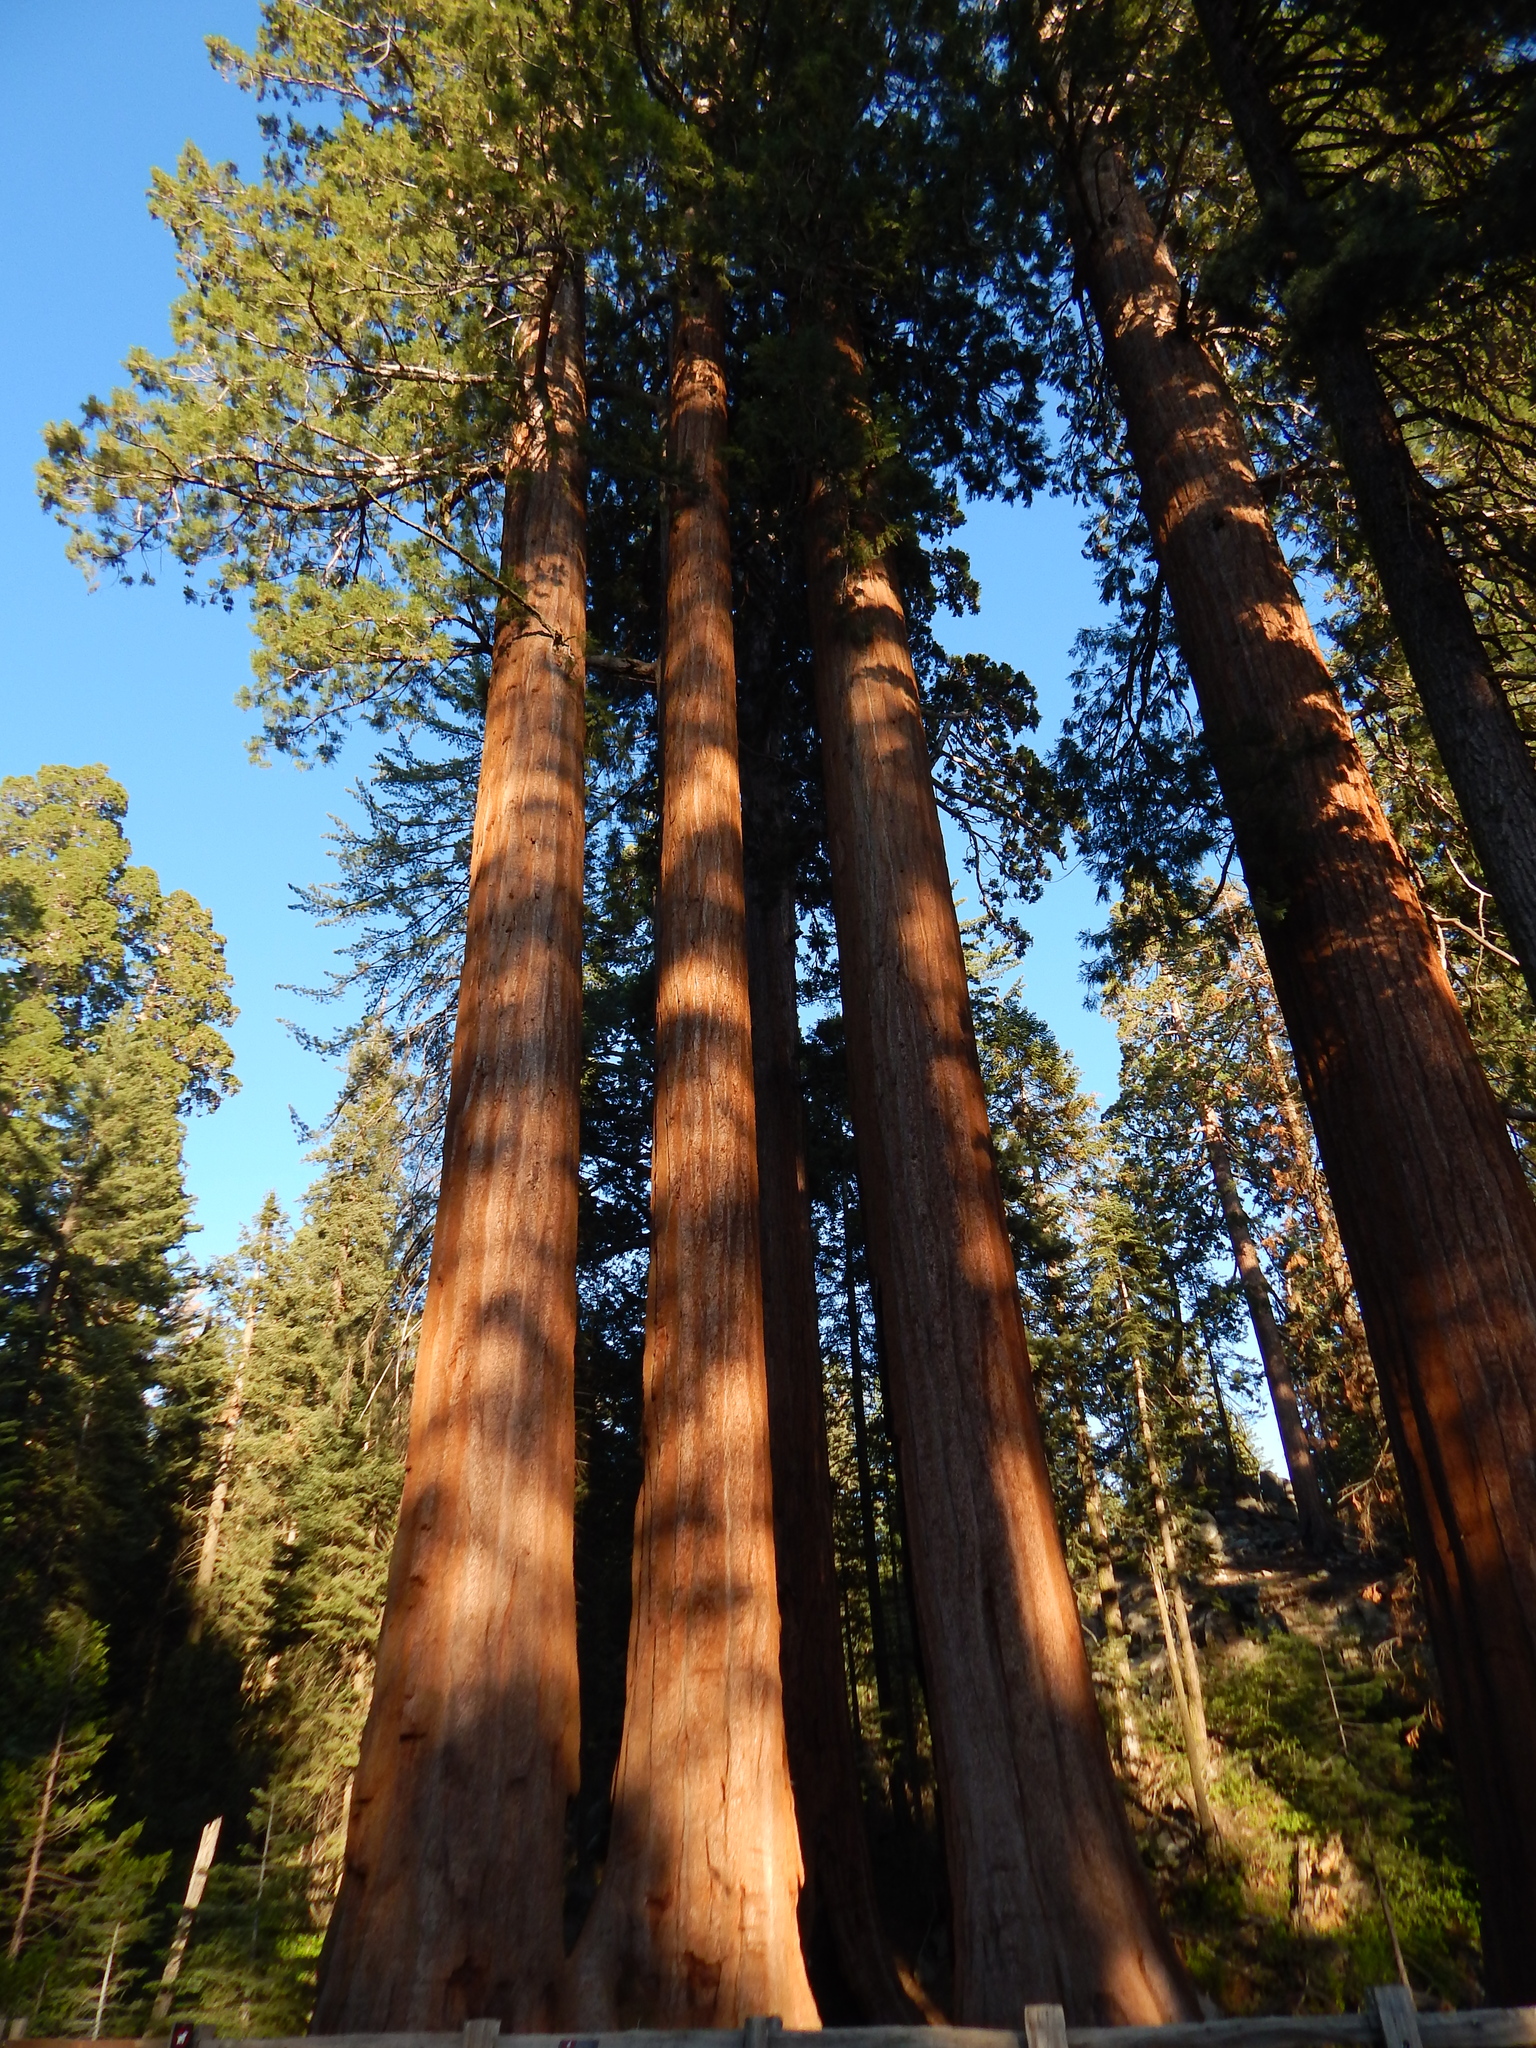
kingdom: Plantae
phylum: Tracheophyta
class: Pinopsida
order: Pinales
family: Cupressaceae
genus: Sequoiadendron
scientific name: Sequoiadendron giganteum
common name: Wellingtonia
